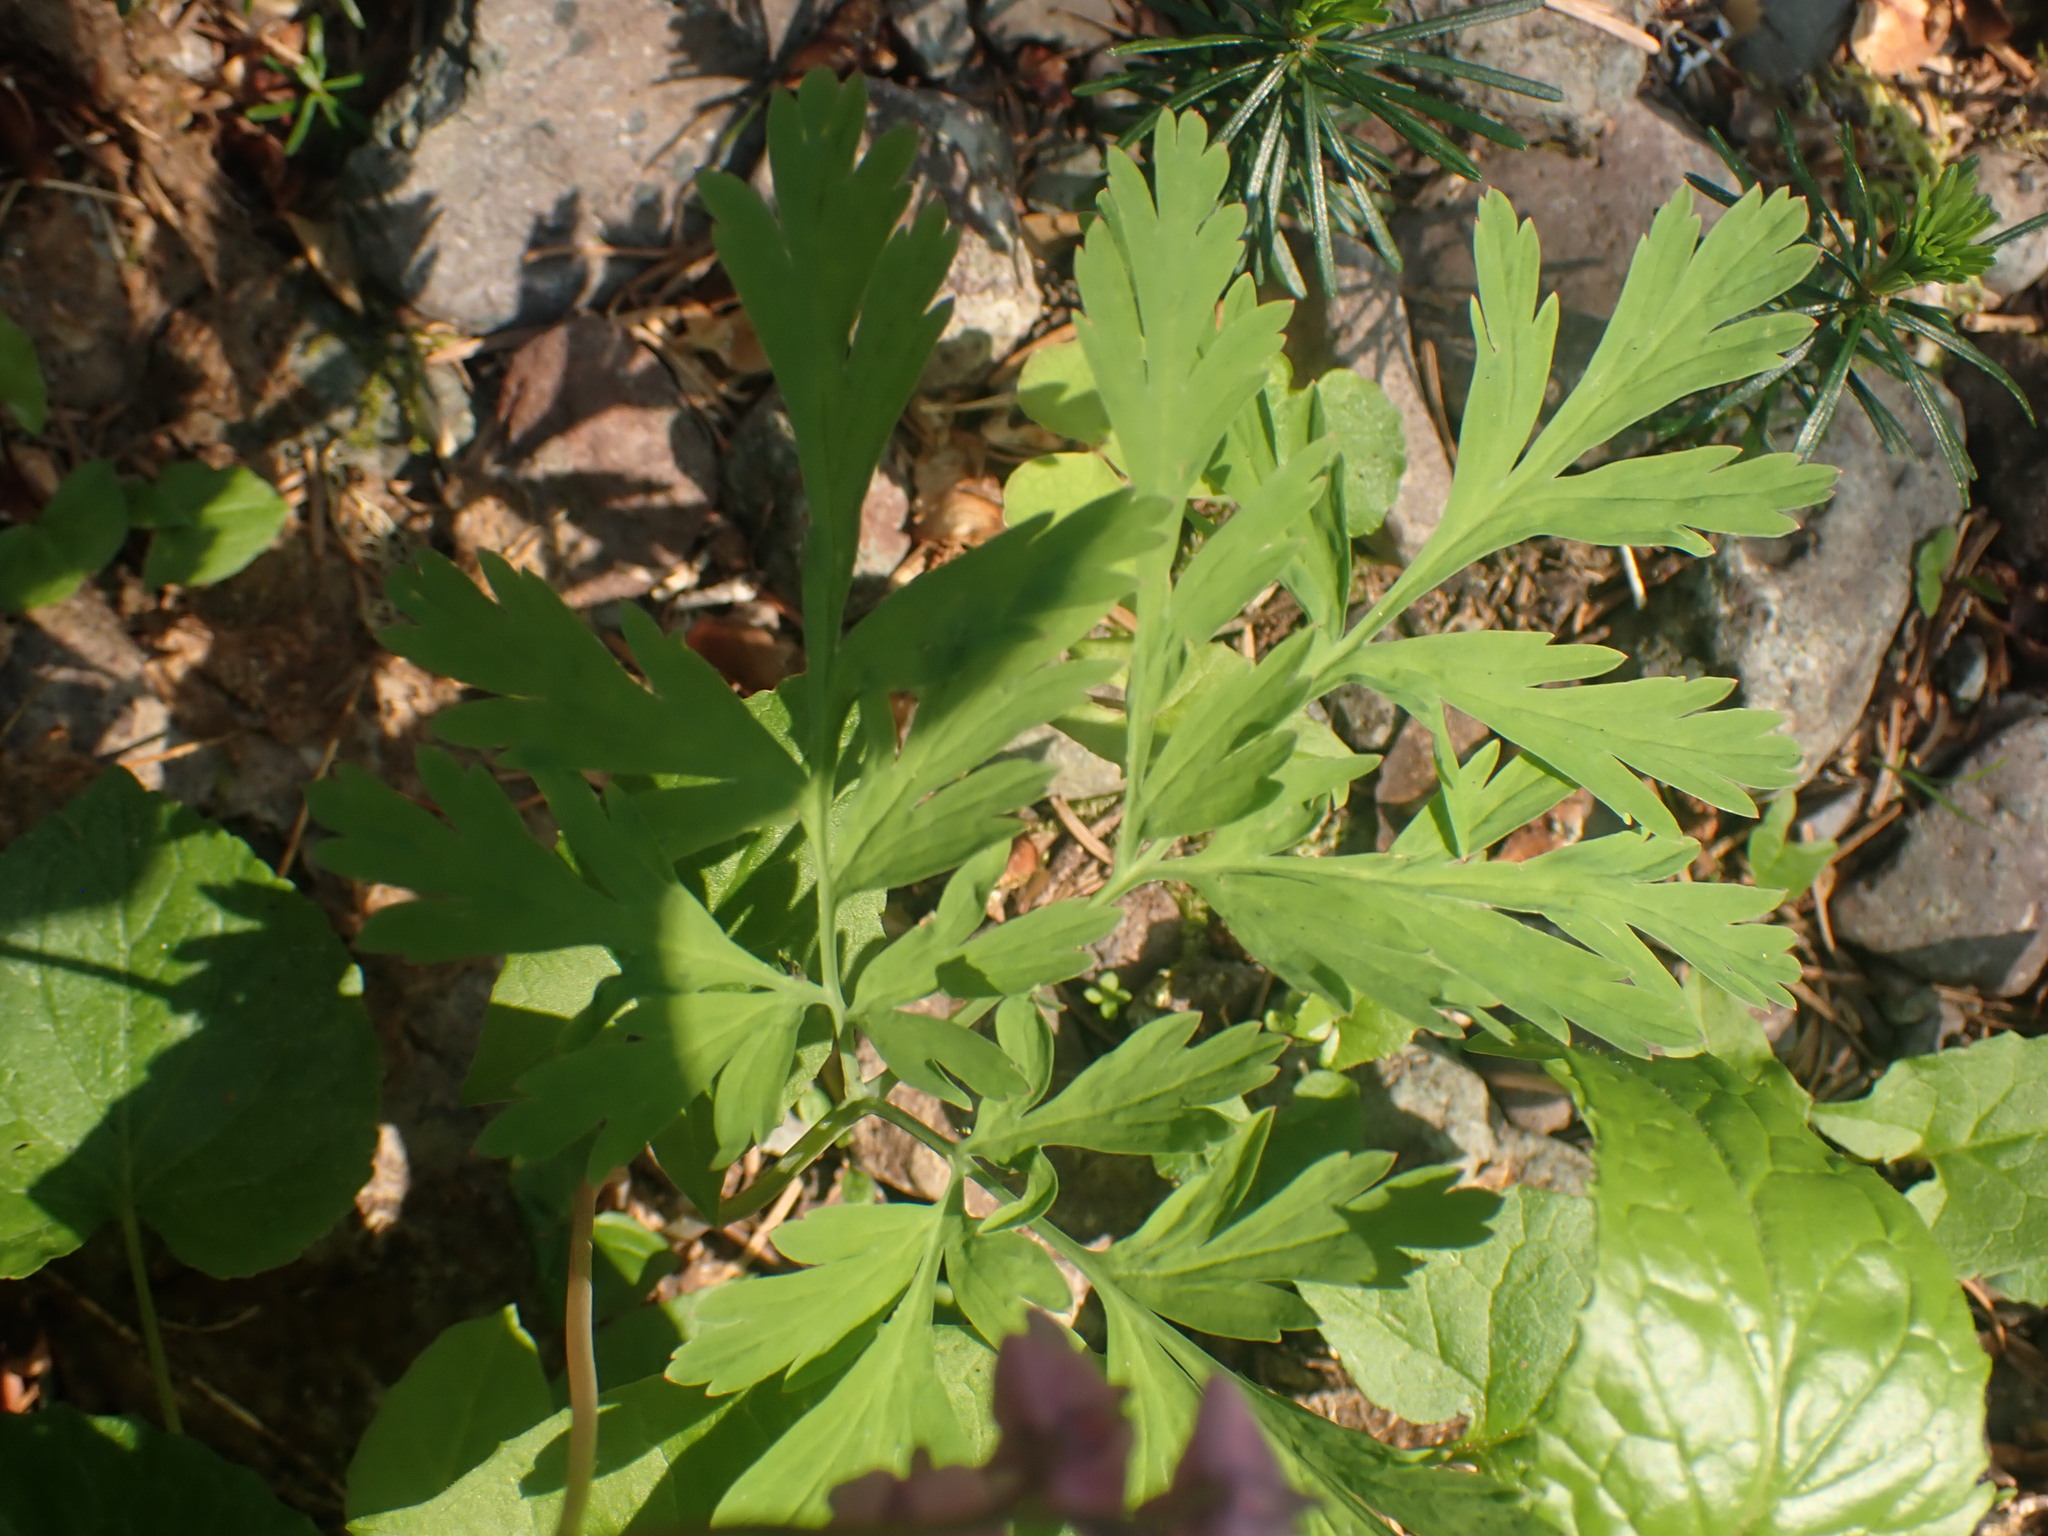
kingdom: Plantae
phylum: Tracheophyta
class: Magnoliopsida
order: Ranunculales
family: Papaveraceae
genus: Dicentra
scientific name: Dicentra formosa
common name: Bleeding-heart
